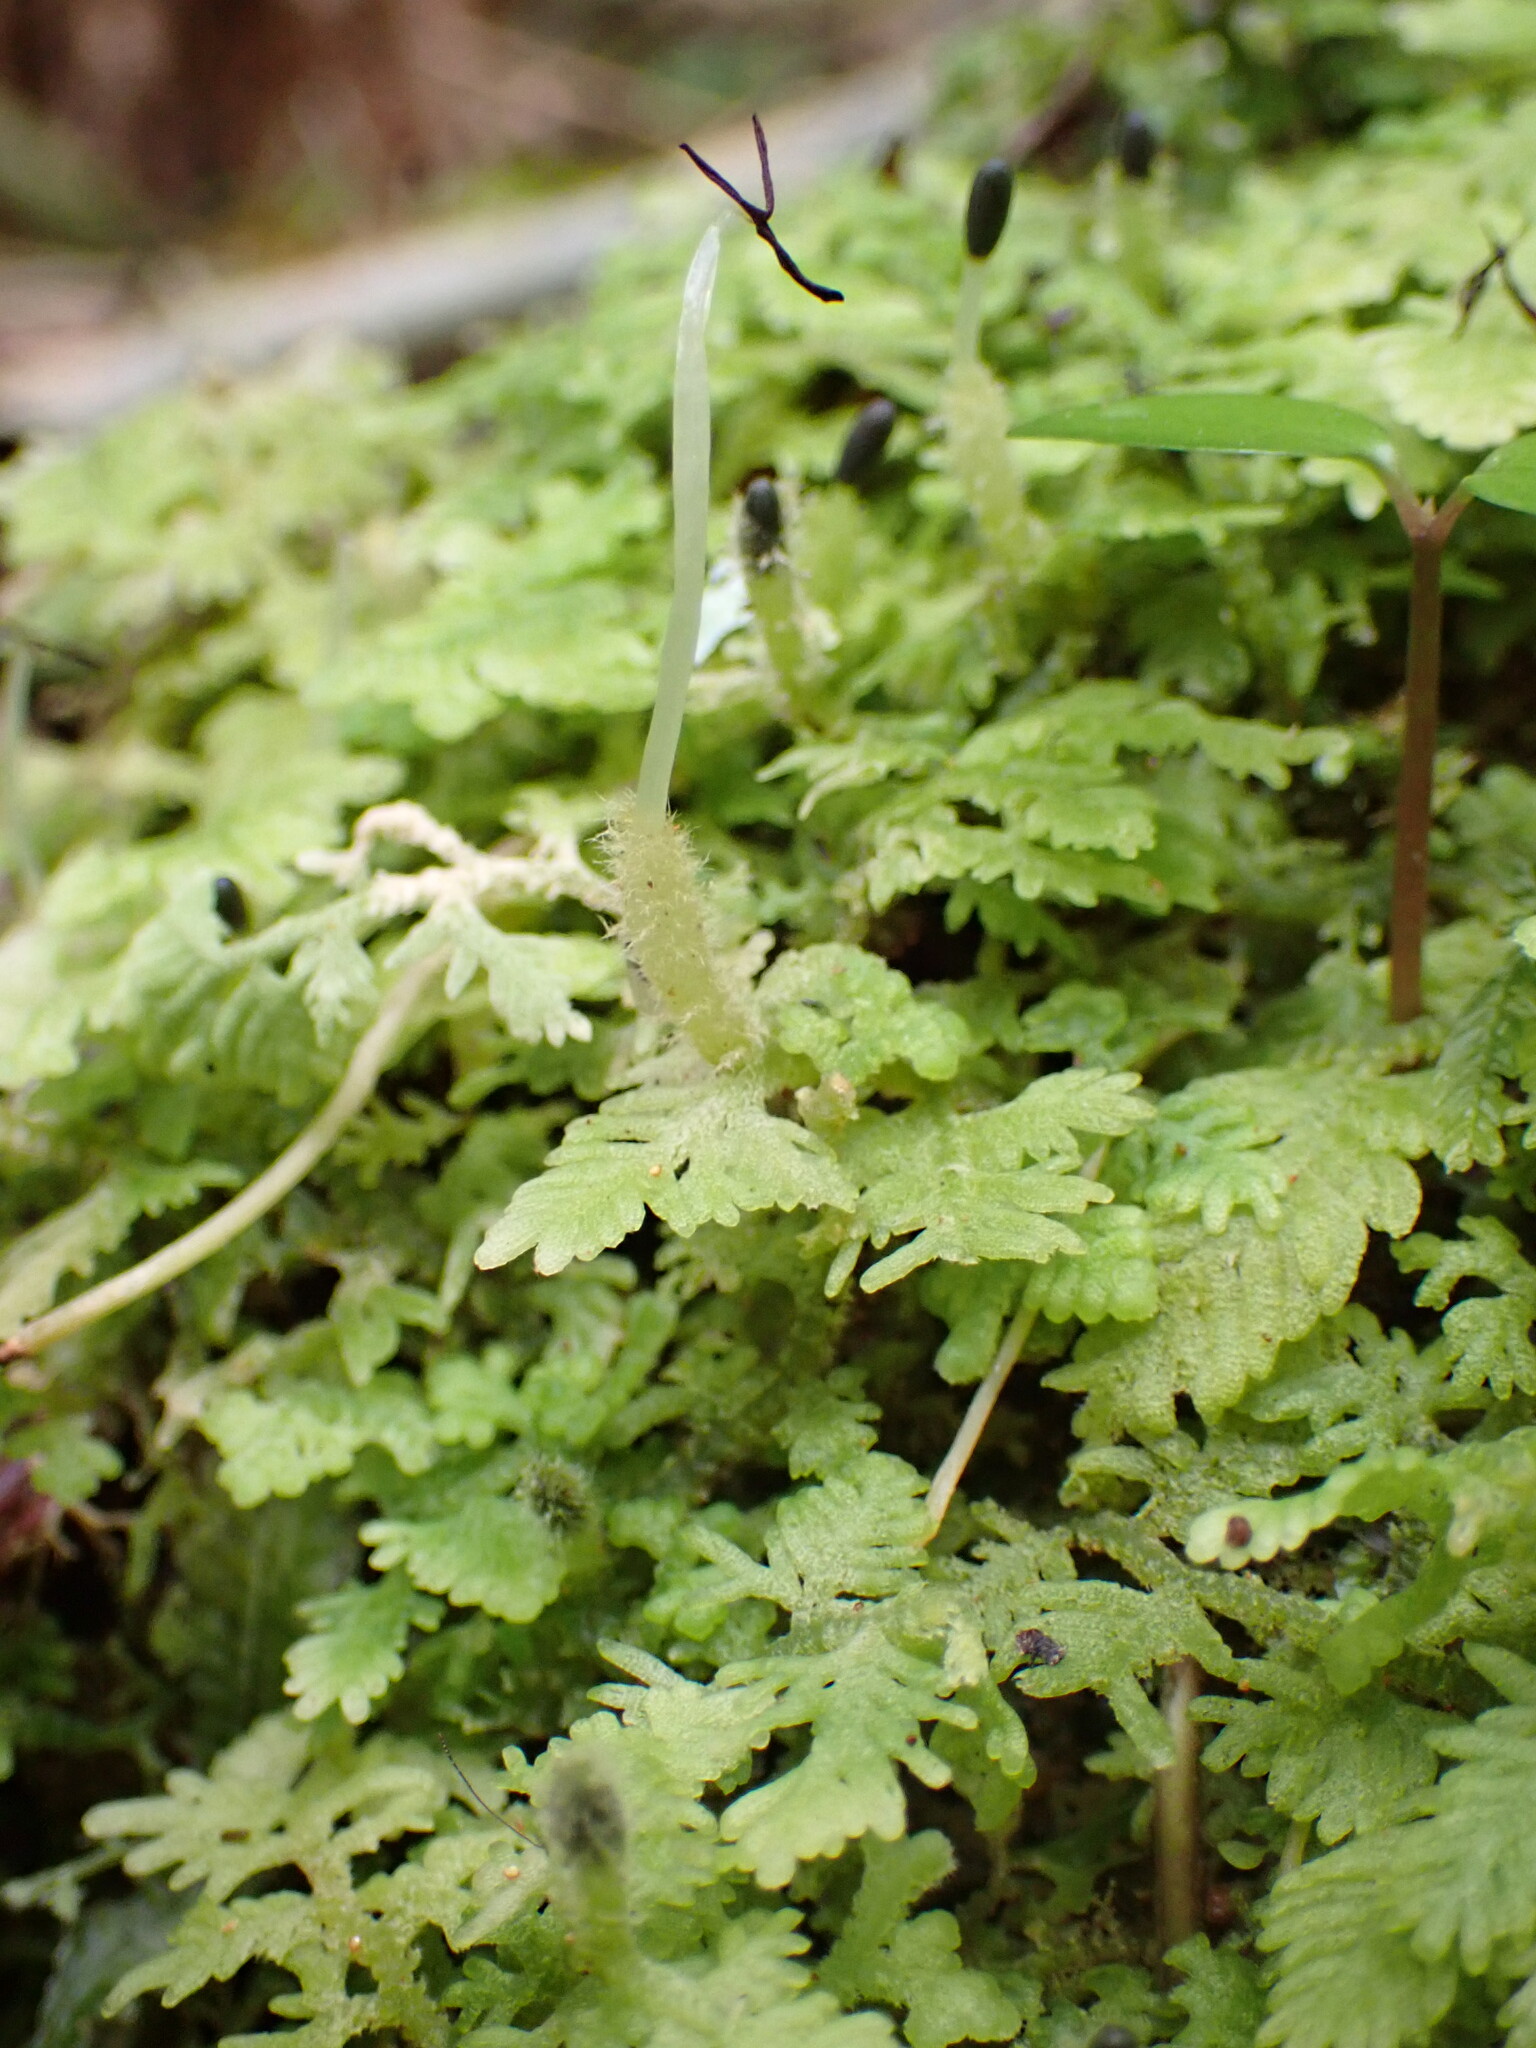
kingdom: Plantae
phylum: Marchantiophyta
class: Jungermanniopsida
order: Jungermanniales
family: Trichocoleaceae
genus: Trichocolea
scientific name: Trichocolea mollissima
